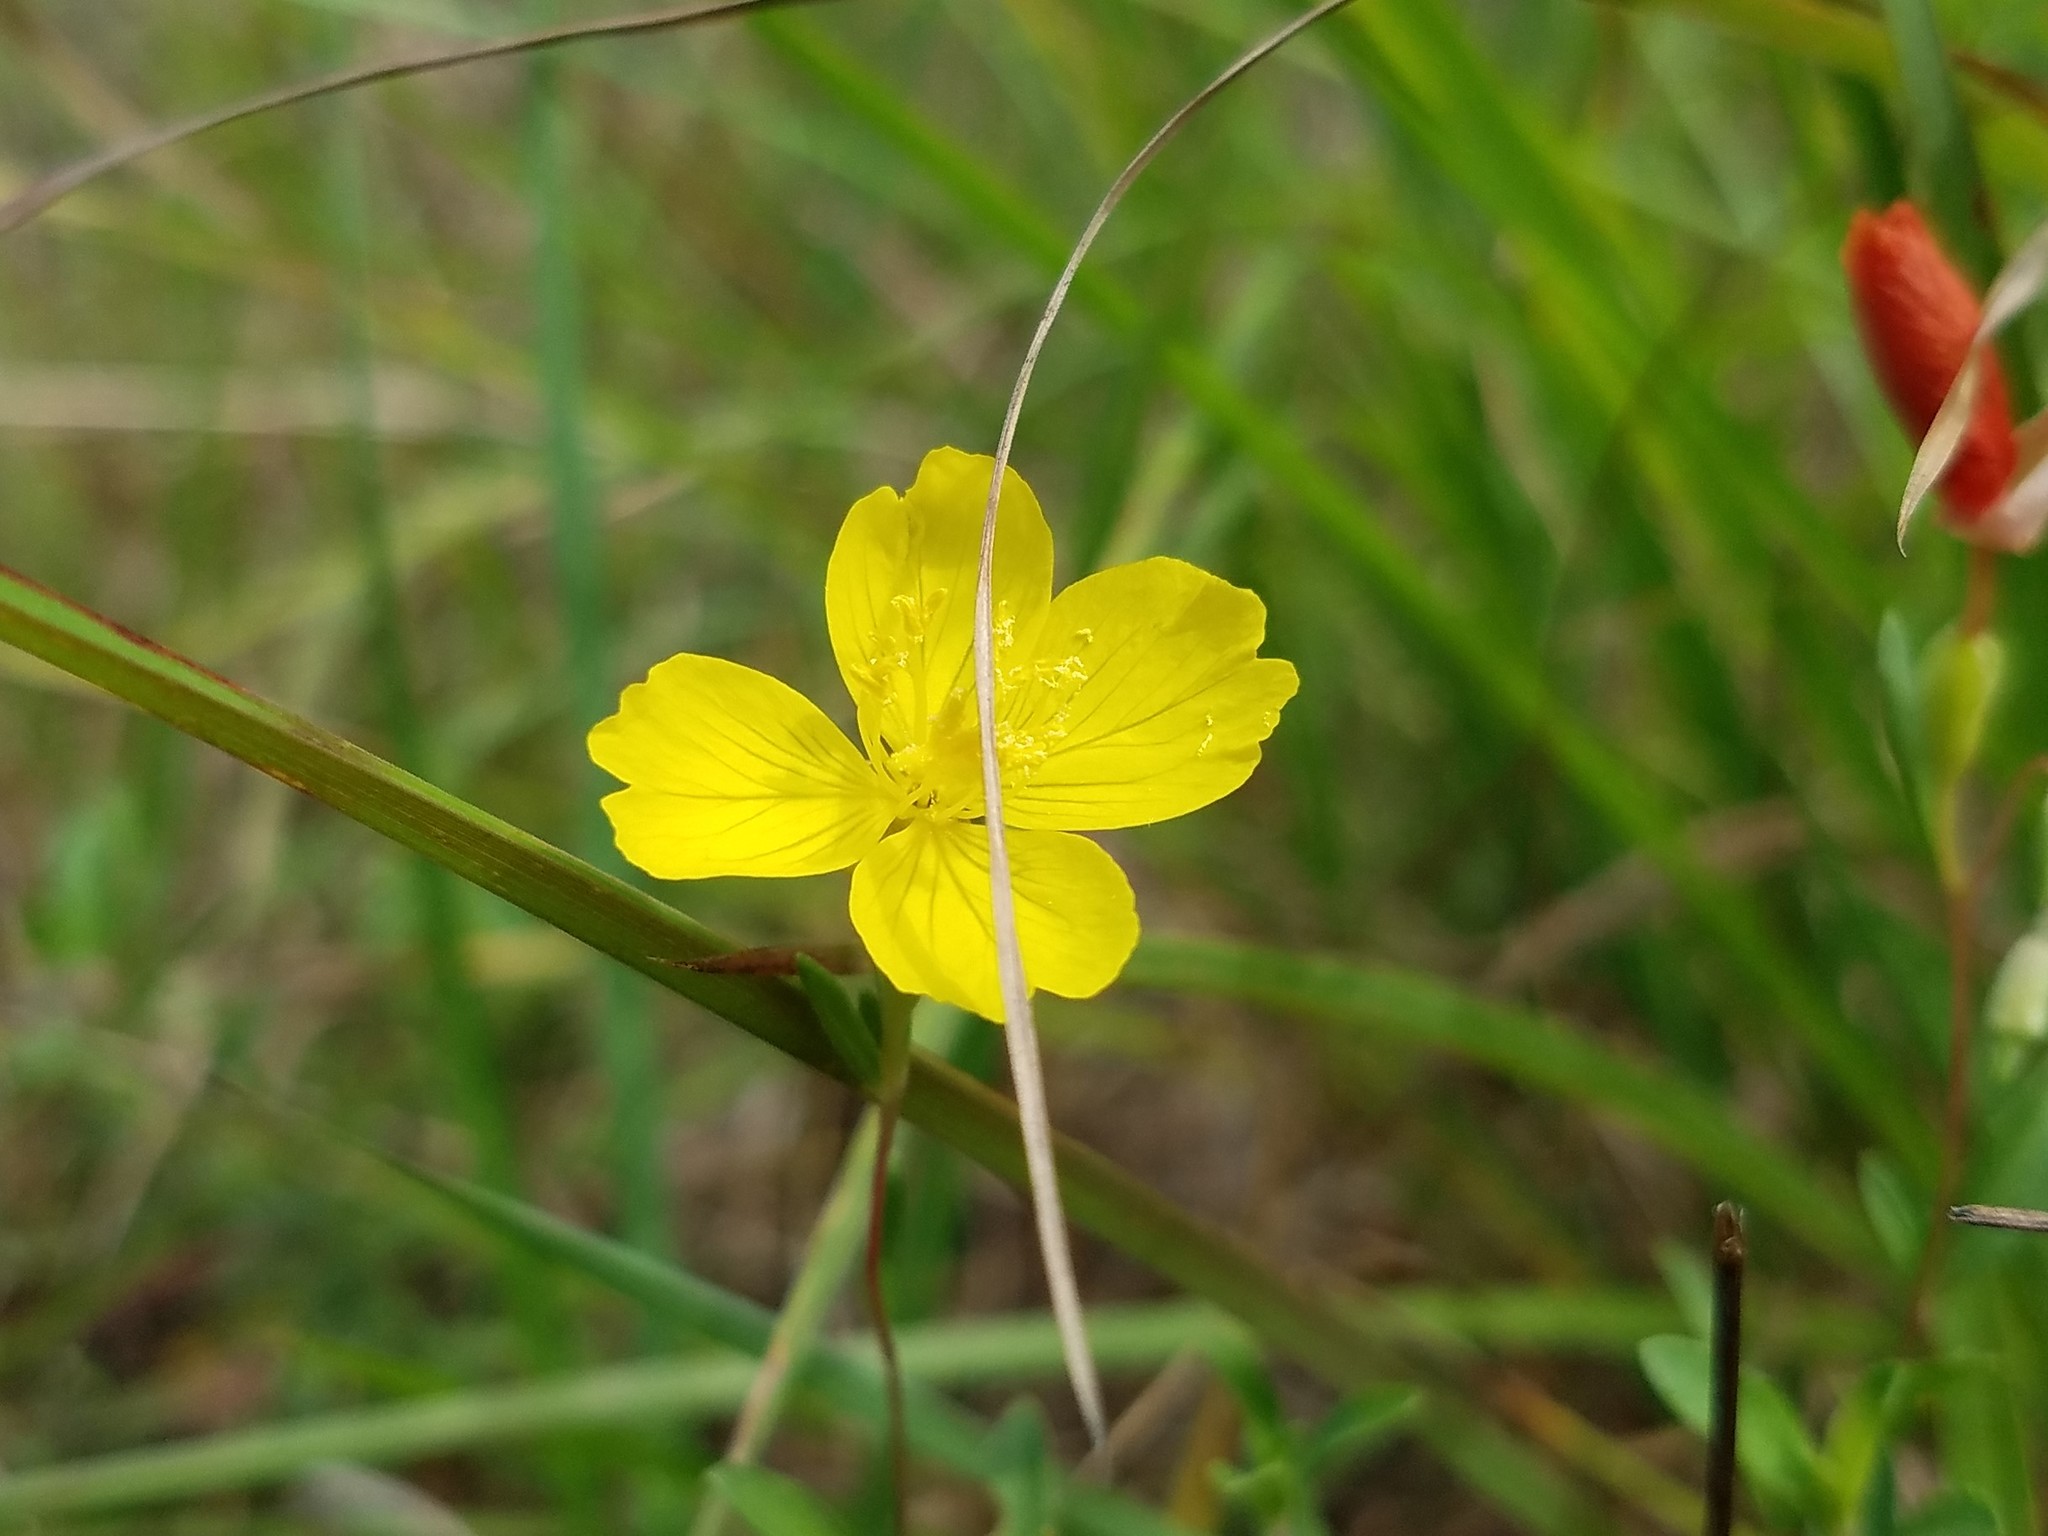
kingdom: Plantae
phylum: Tracheophyta
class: Magnoliopsida
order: Myrtales
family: Onagraceae
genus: Oenothera
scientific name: Oenothera fruticosa
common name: Southern sundrops
